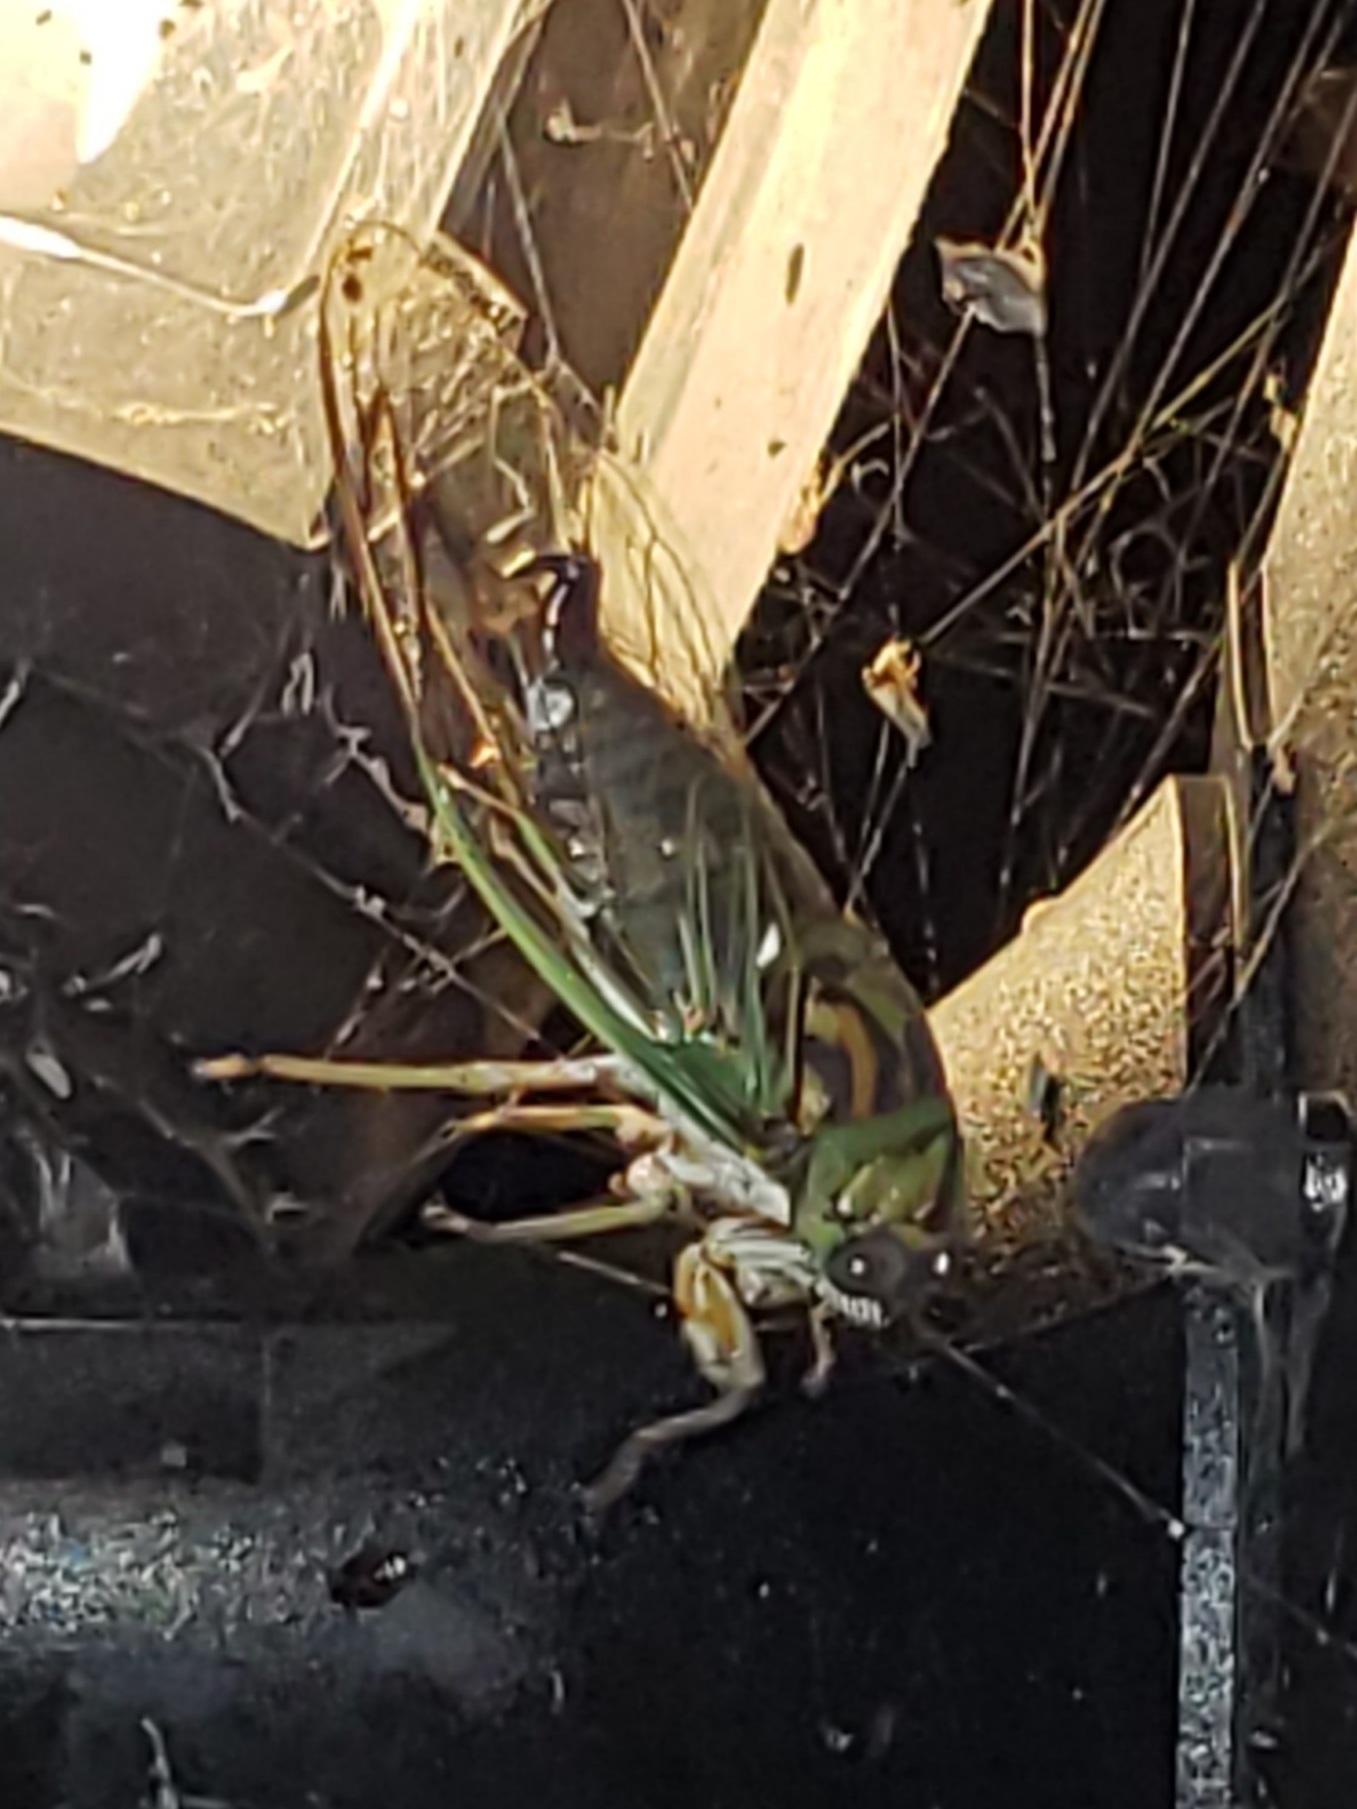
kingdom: Animalia
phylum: Arthropoda
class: Insecta
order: Hemiptera
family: Cicadidae
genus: Neotibicen
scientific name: Neotibicen linnei
